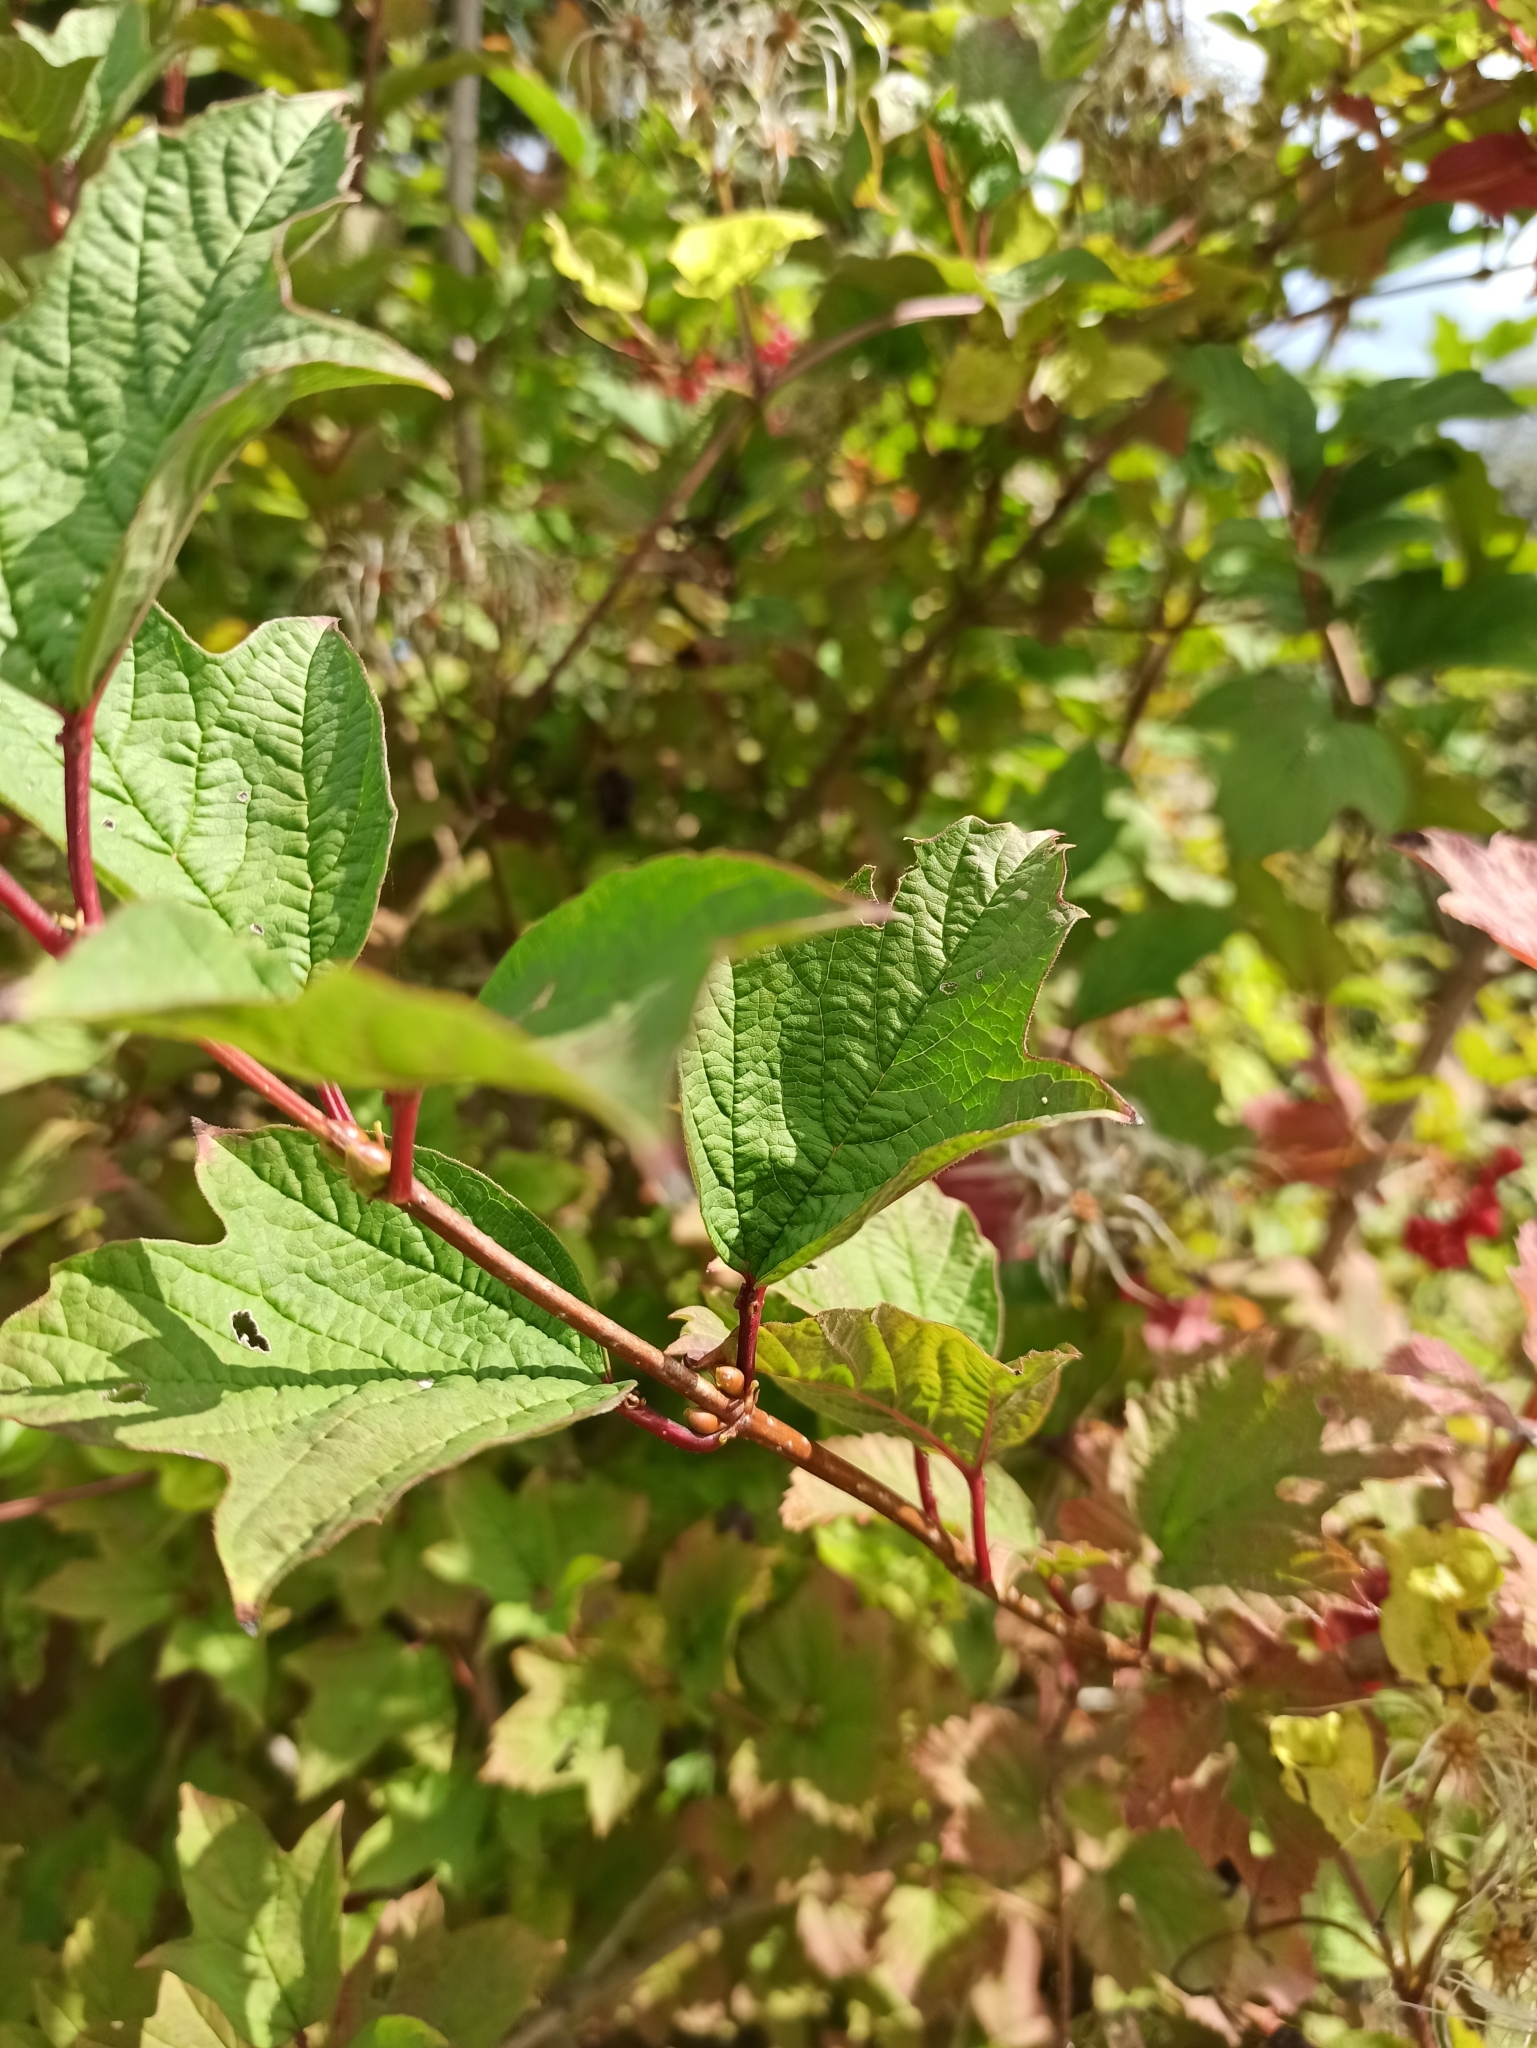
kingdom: Plantae
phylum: Tracheophyta
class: Magnoliopsida
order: Dipsacales
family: Viburnaceae
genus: Viburnum
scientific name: Viburnum opulus
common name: Guelder-rose
